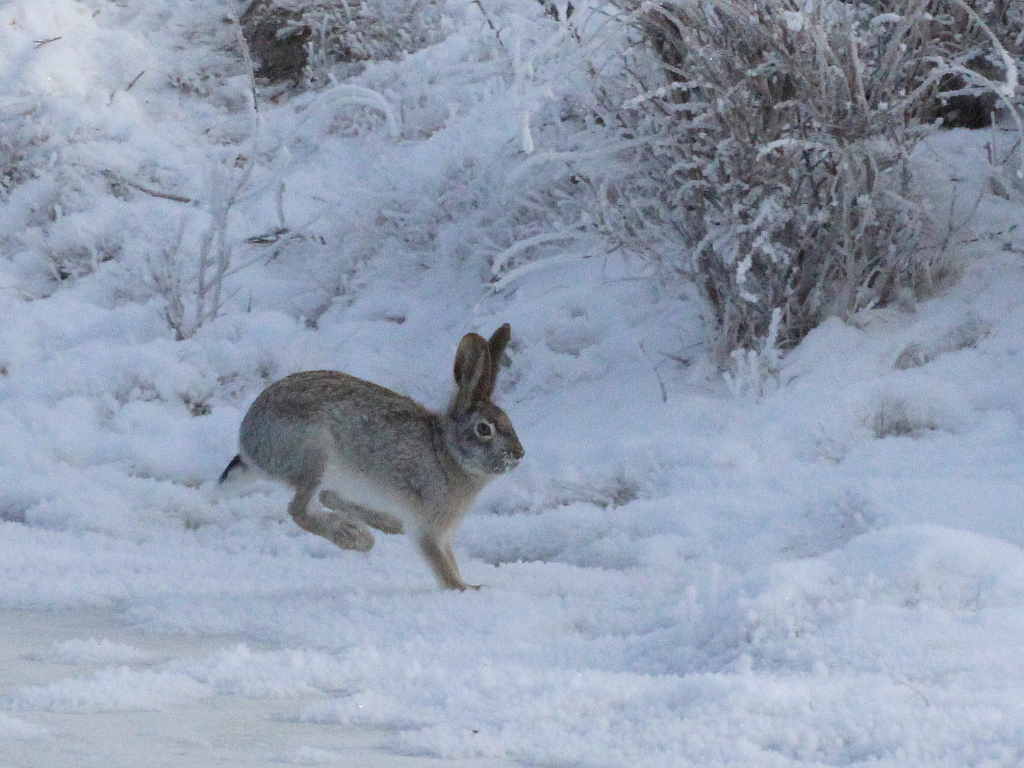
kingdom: Animalia
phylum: Chordata
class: Mammalia
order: Lagomorpha
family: Leporidae
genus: Lepus
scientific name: Lepus tolai
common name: Tolai hare
